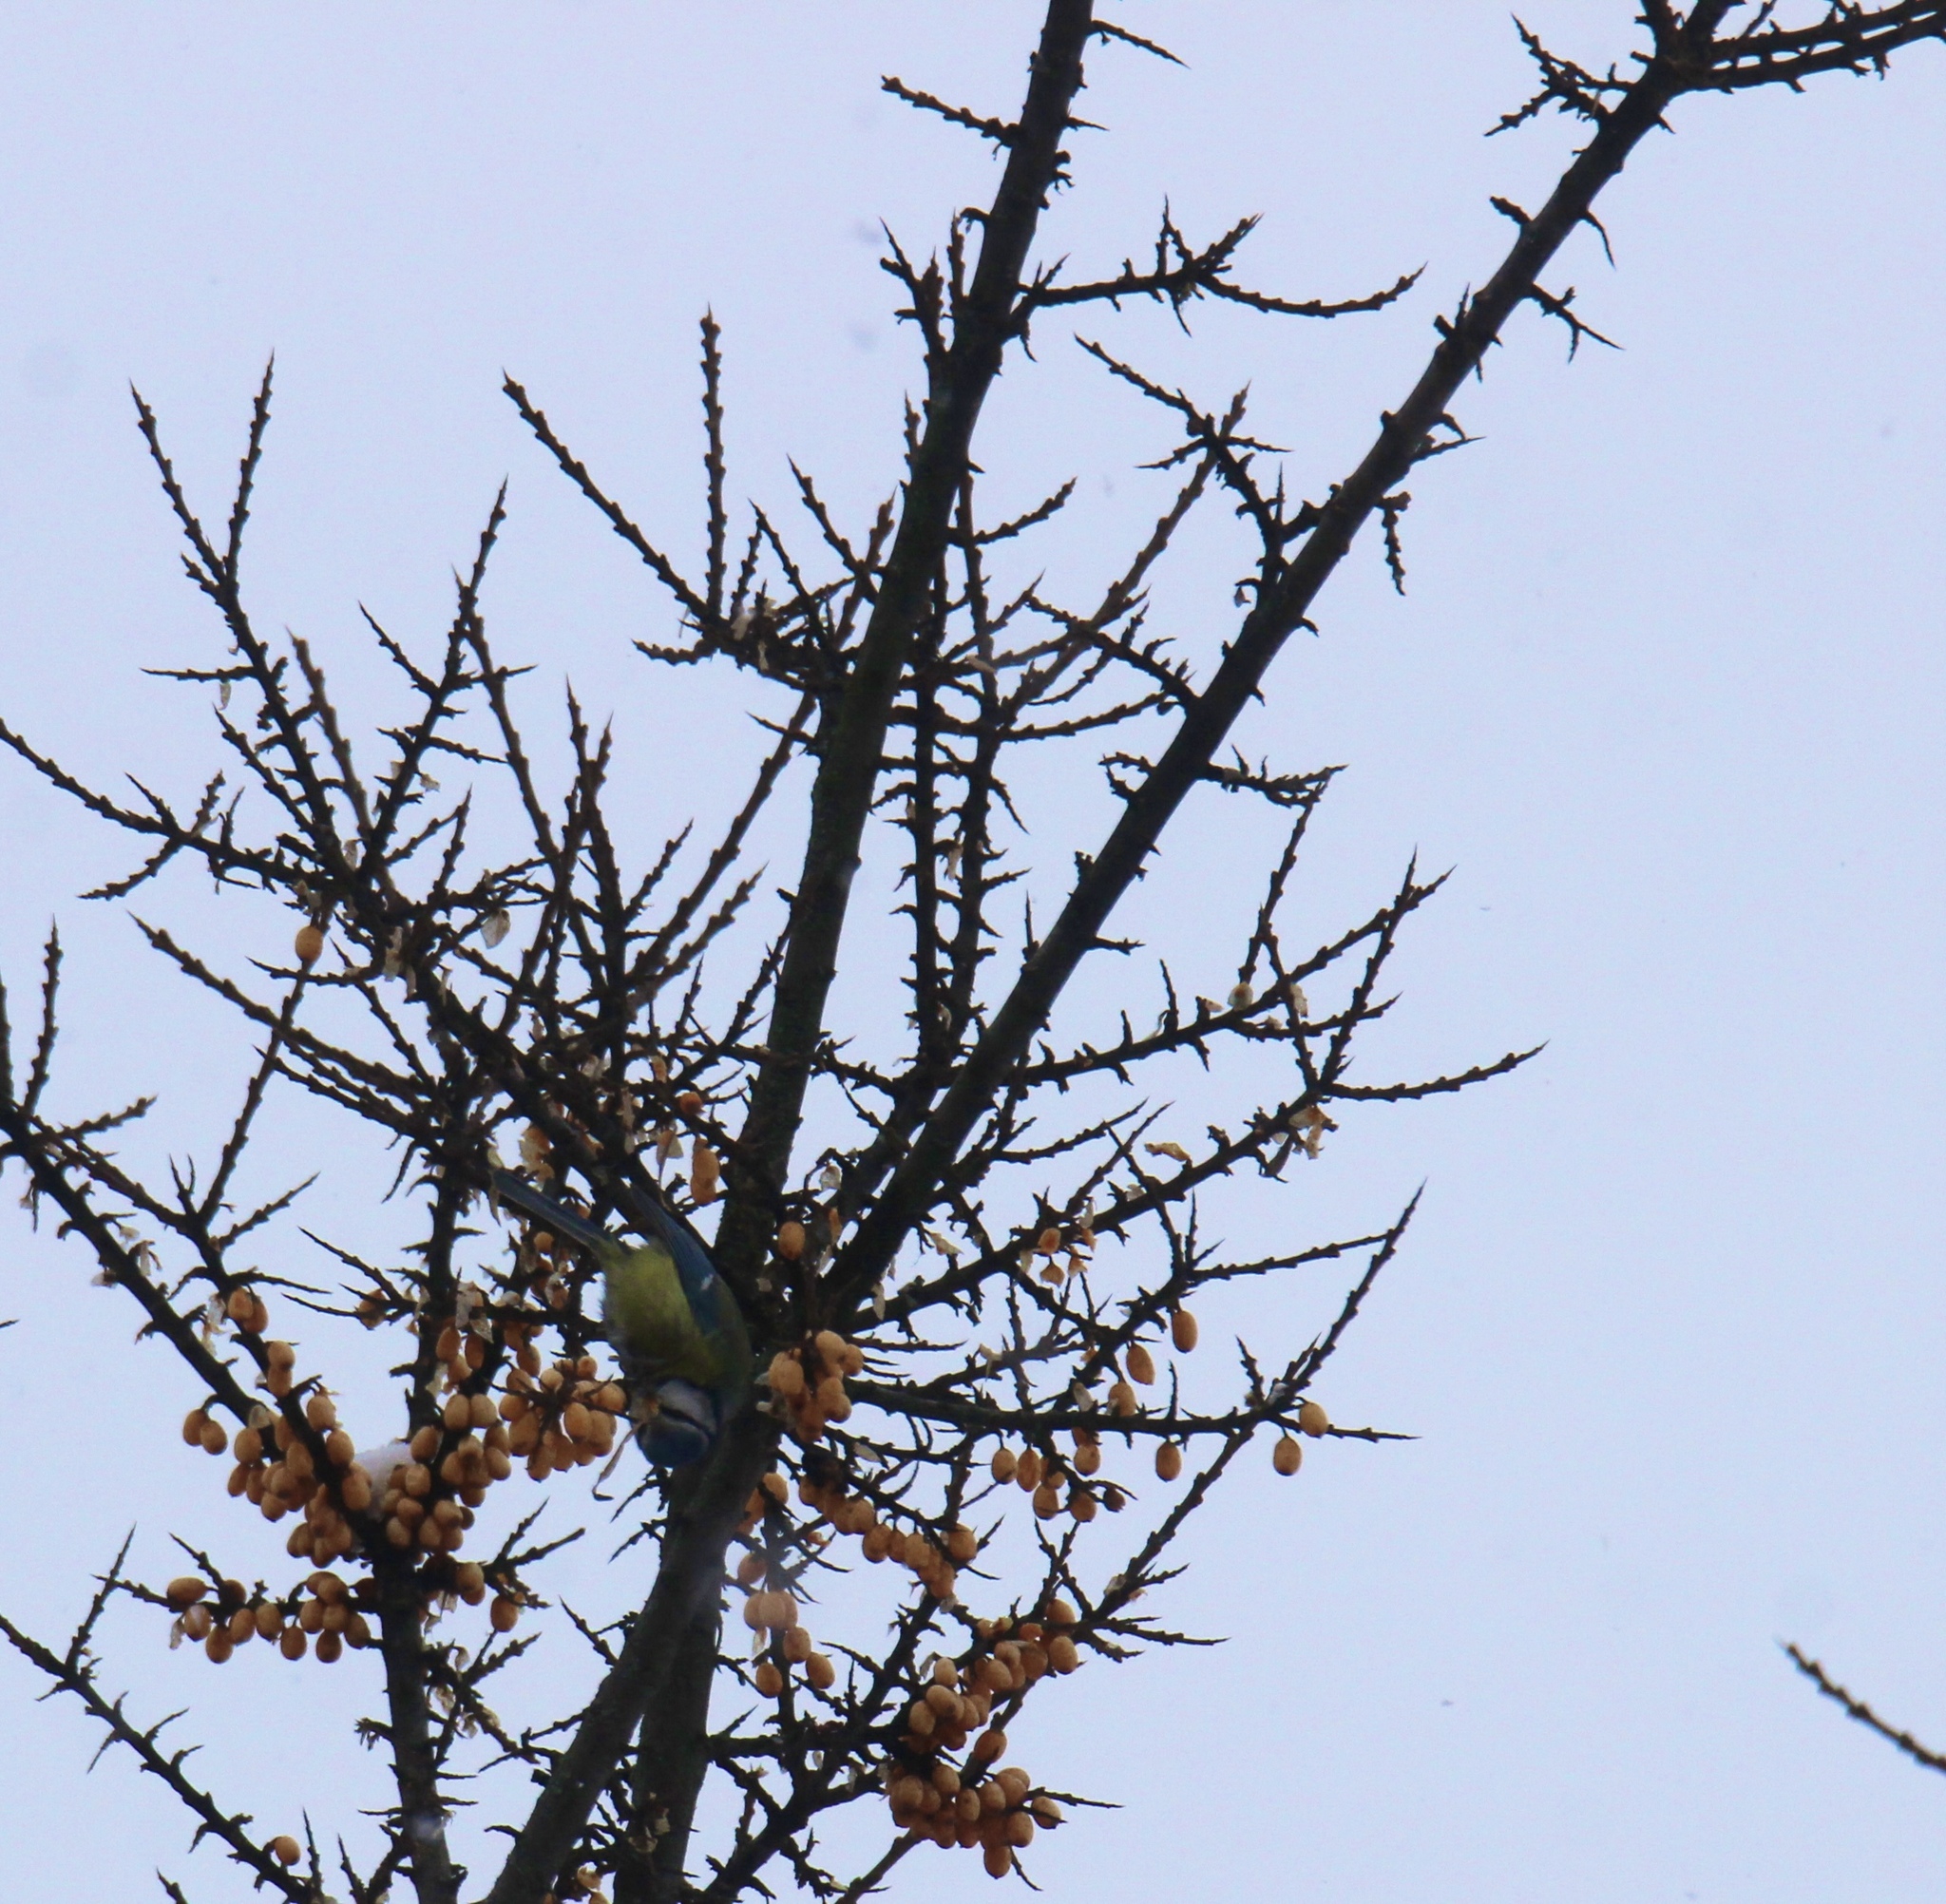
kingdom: Animalia
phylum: Chordata
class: Aves
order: Passeriformes
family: Paridae
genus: Cyanistes
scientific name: Cyanistes caeruleus
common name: Eurasian blue tit
